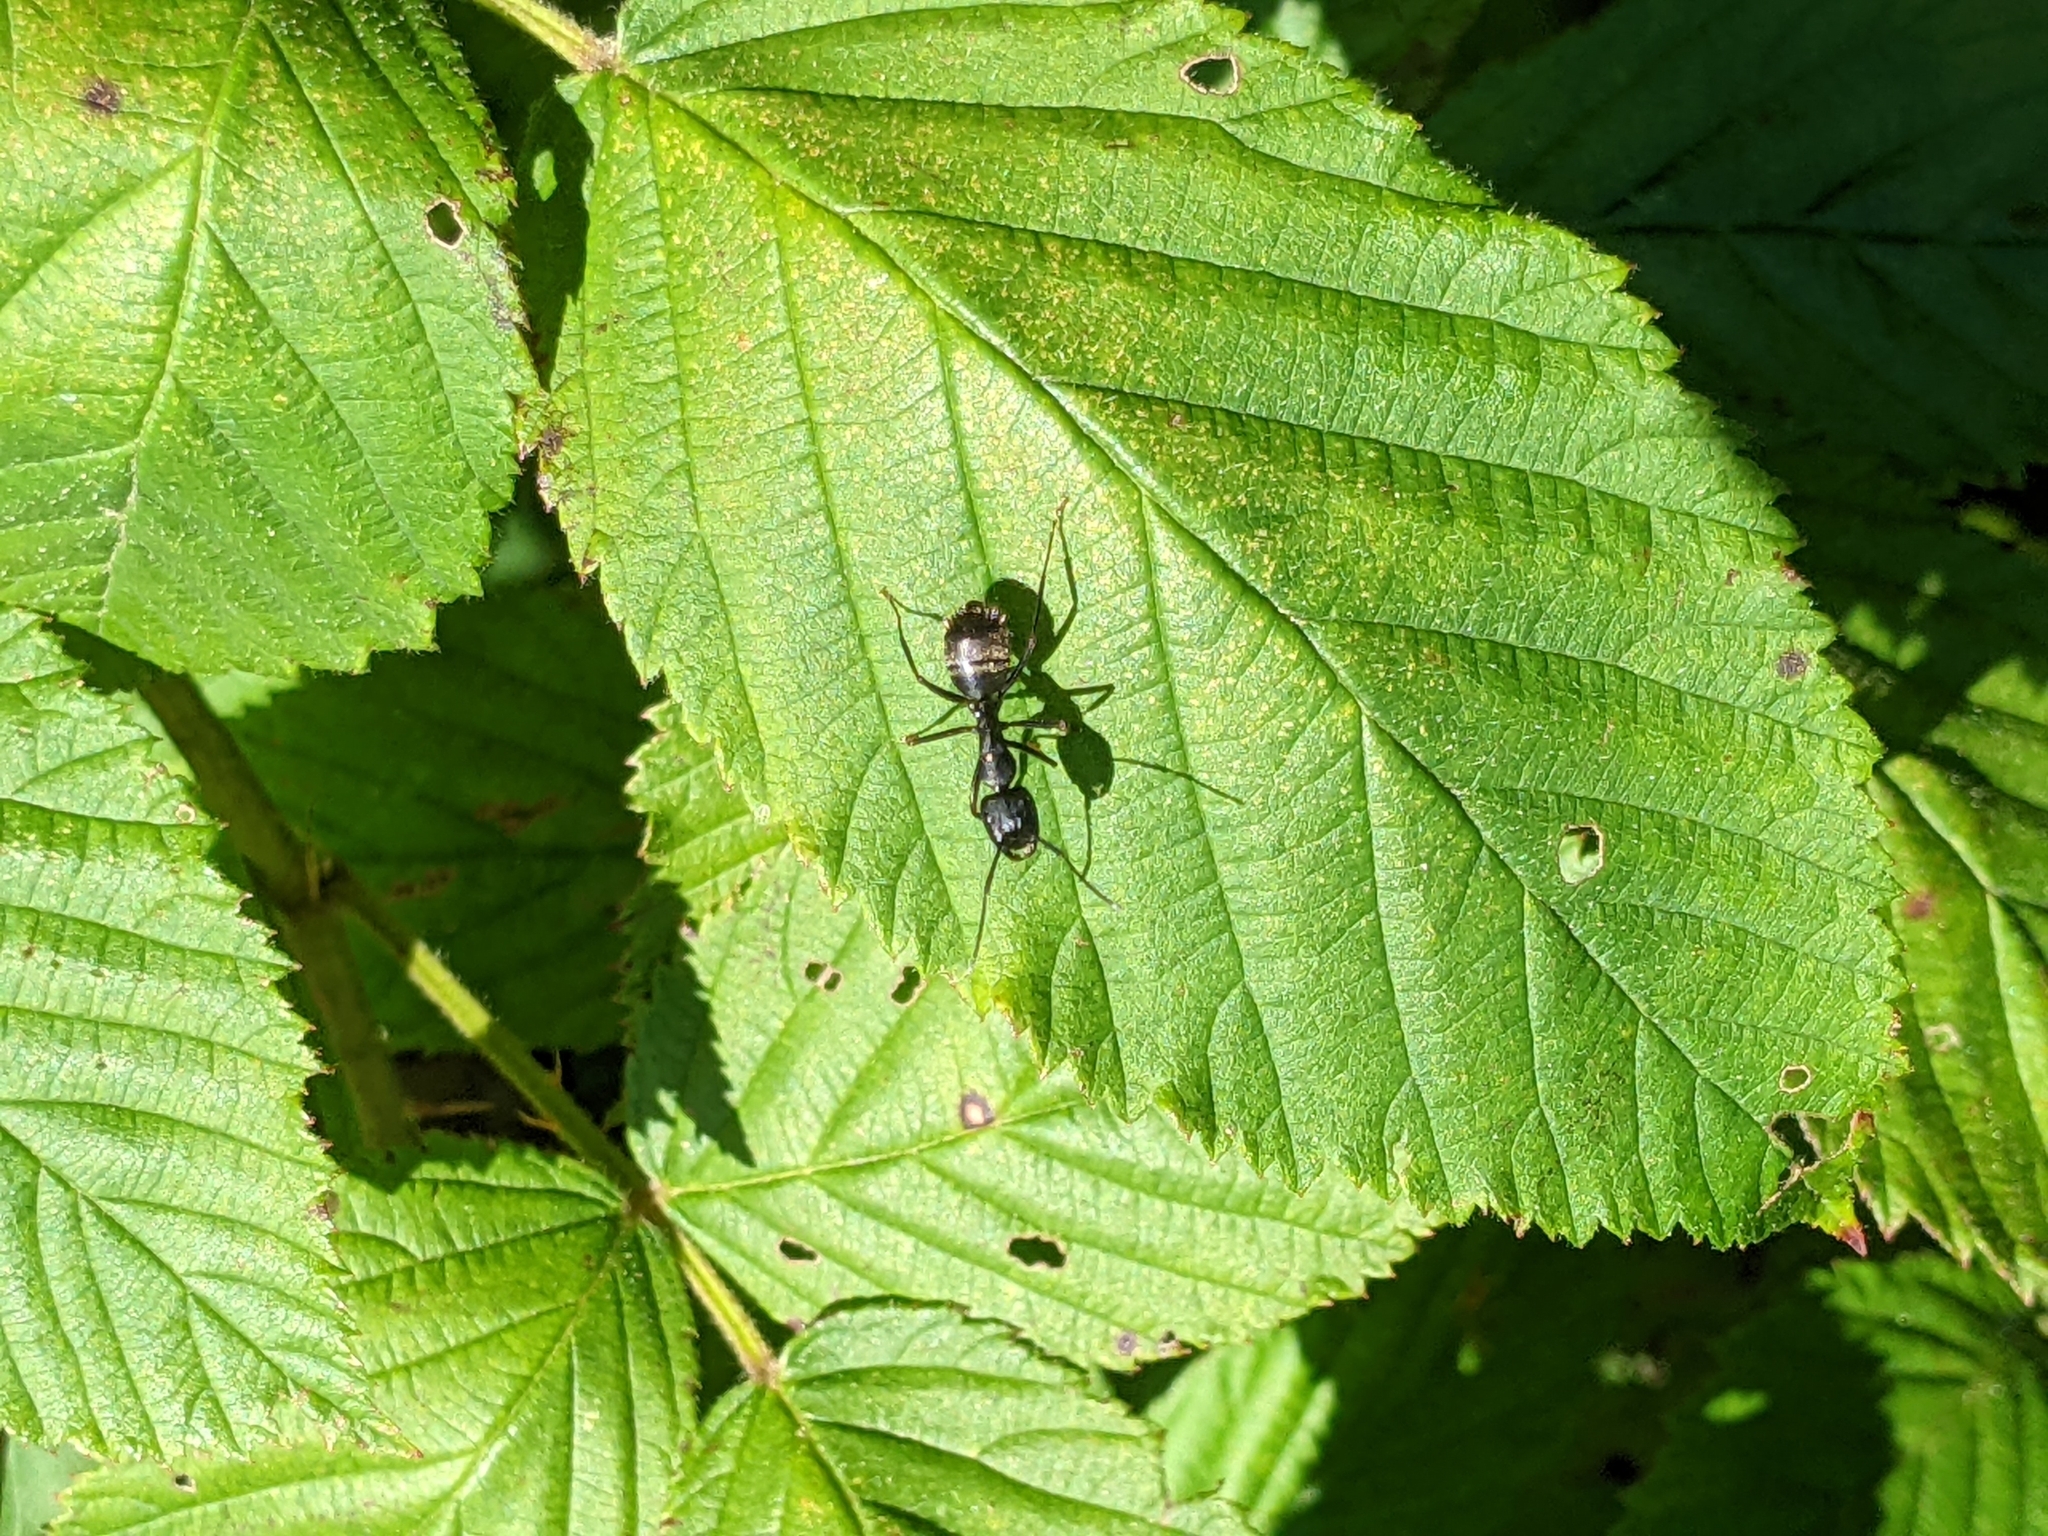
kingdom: Animalia
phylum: Arthropoda
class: Insecta
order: Hymenoptera
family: Formicidae
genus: Camponotus
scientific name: Camponotus pennsylvanicus
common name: Black carpenter ant
